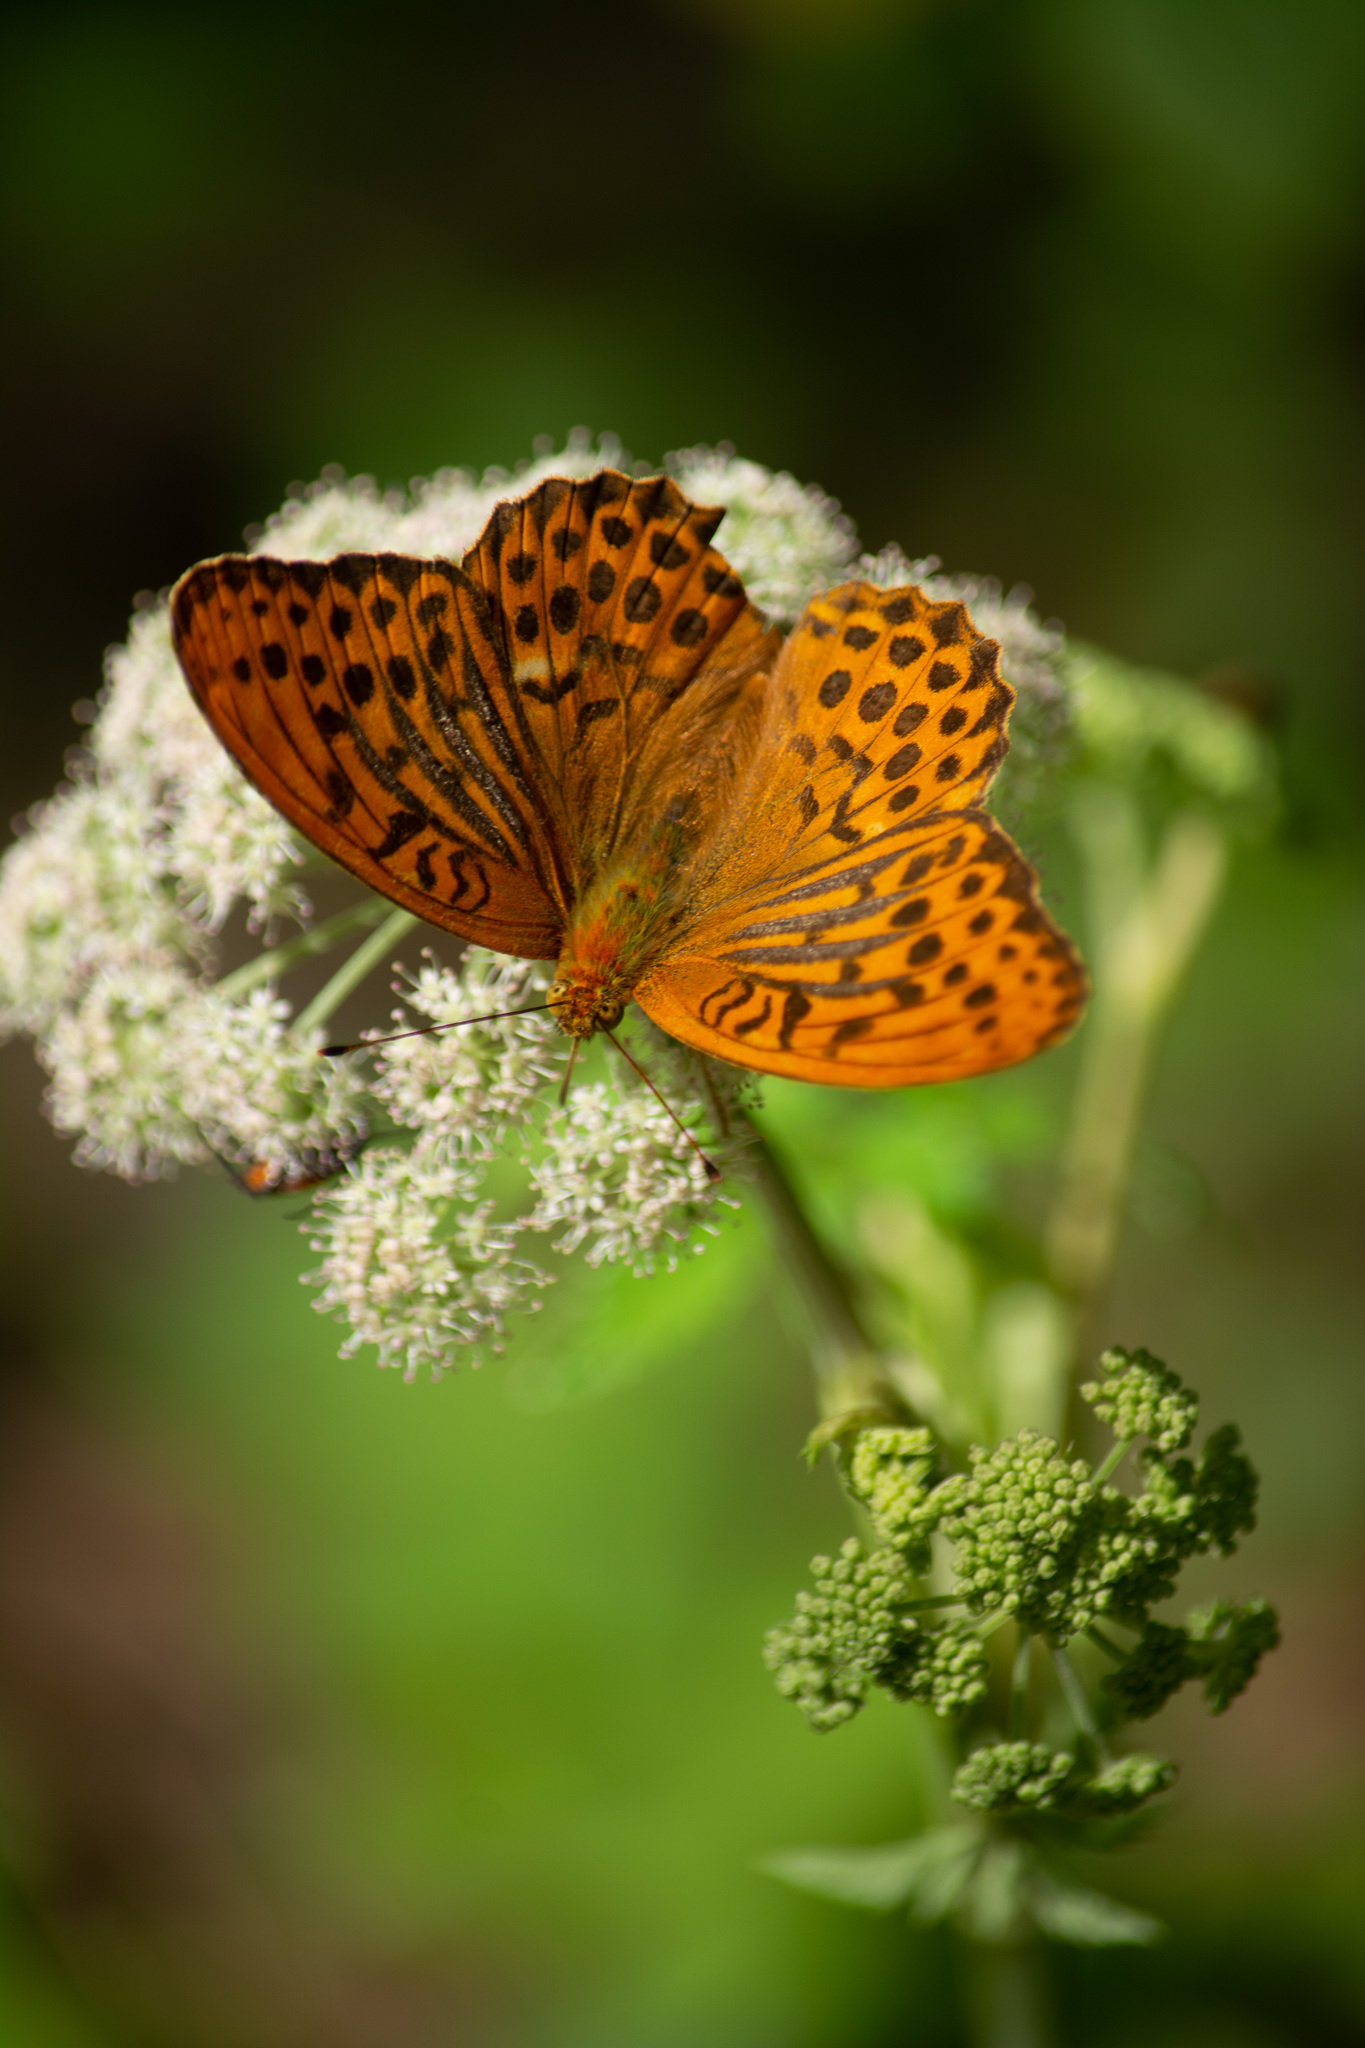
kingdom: Animalia
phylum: Arthropoda
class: Insecta
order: Lepidoptera
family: Nymphalidae
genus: Argynnis
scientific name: Argynnis paphia
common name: Silver-washed fritillary
